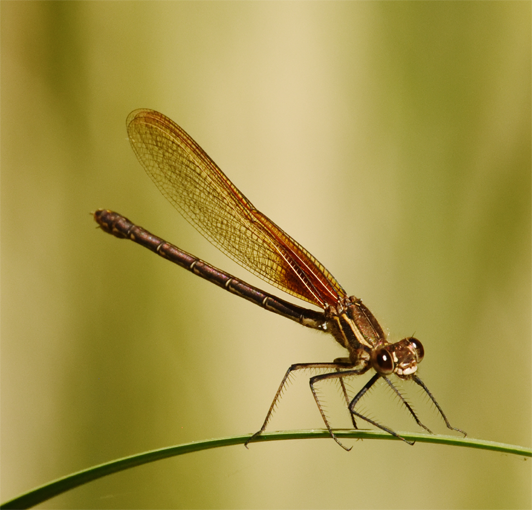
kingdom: Animalia
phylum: Arthropoda
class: Insecta
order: Odonata
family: Calopterygidae
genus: Hetaerina
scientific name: Hetaerina americana
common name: American rubyspot
